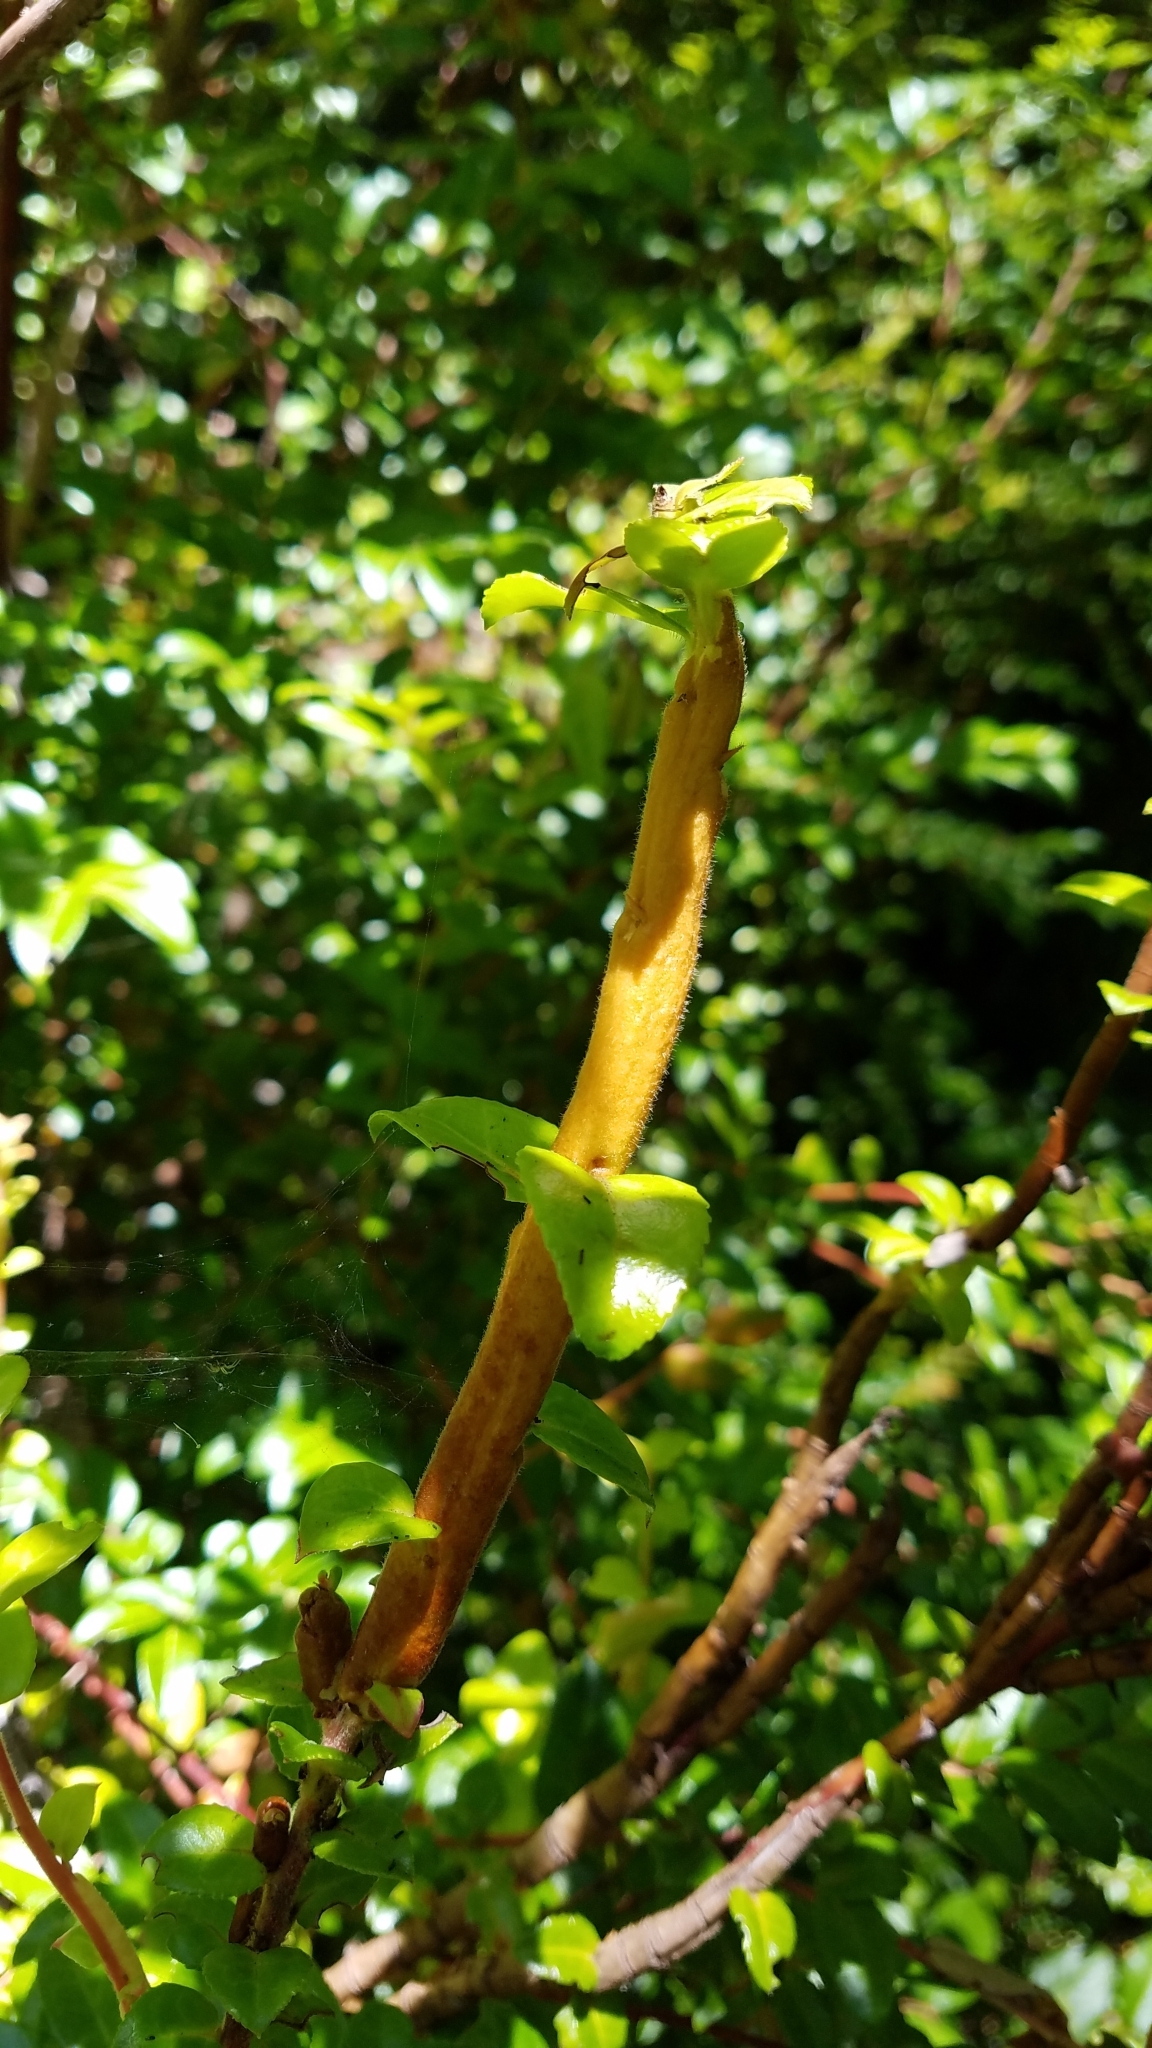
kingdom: Fungi
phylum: Basidiomycota
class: Pucciniomycetes
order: Pucciniales
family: Pucciniastraceae
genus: Calyptospora
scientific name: Calyptospora
